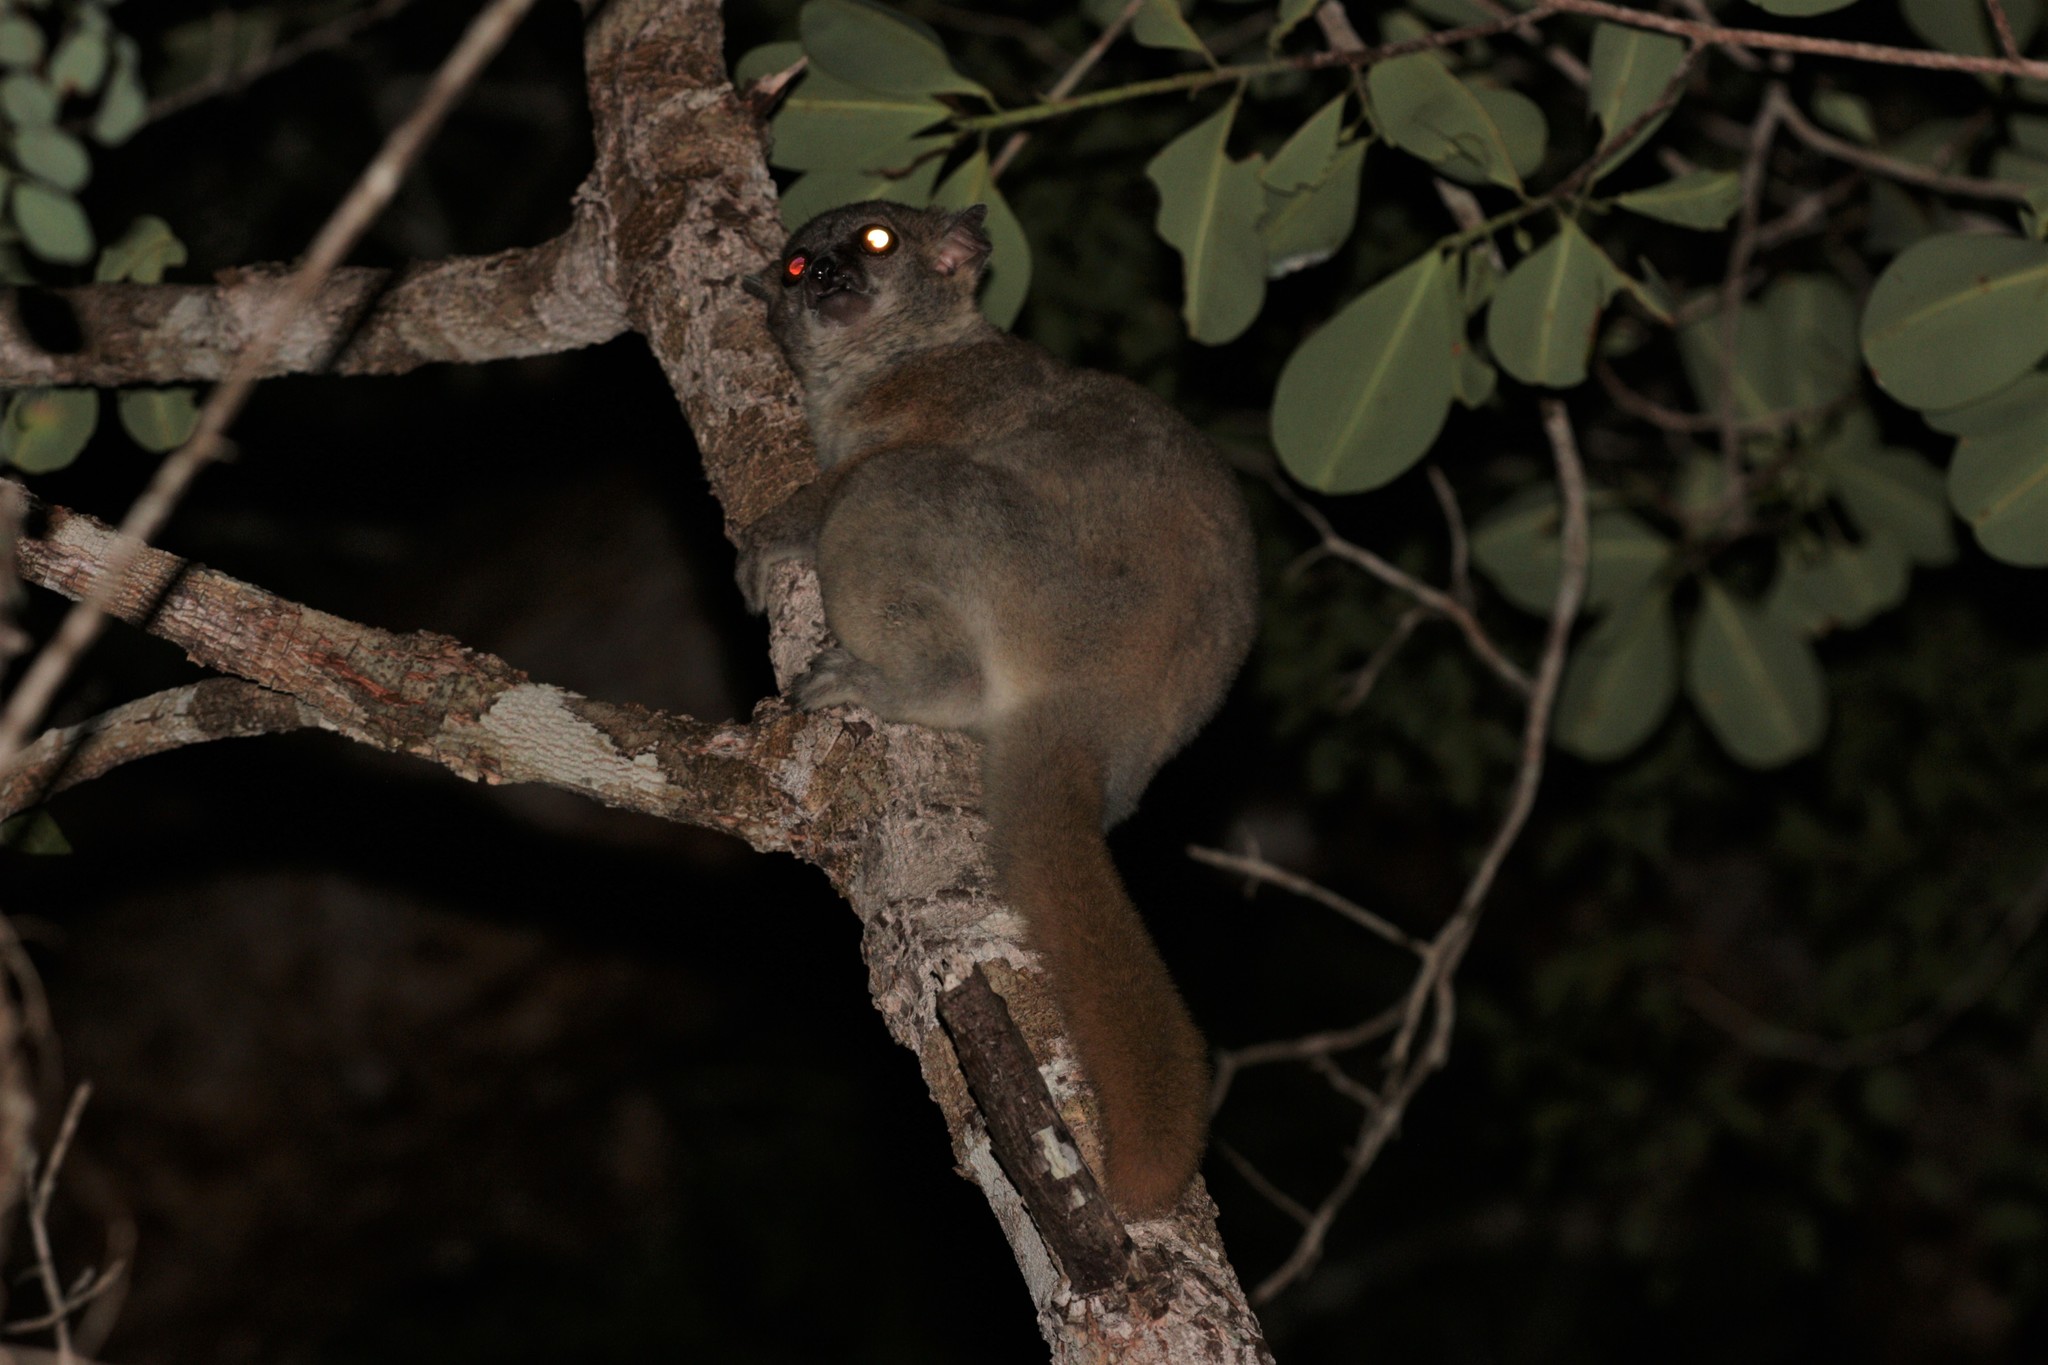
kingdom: Animalia
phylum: Chordata
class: Mammalia
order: Primates
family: Lepilemuridae
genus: Lepilemur
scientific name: Lepilemur ruficaudatus
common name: Red-tailed sportive lemur
